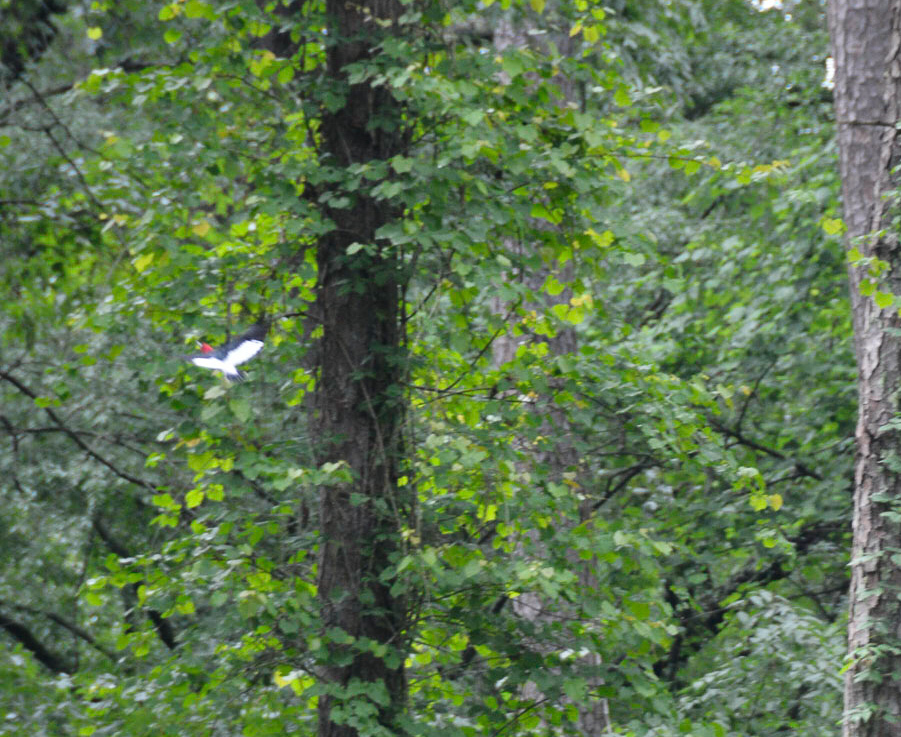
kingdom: Animalia
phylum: Chordata
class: Aves
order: Piciformes
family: Picidae
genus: Melanerpes
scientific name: Melanerpes erythrocephalus
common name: Red-headed woodpecker
